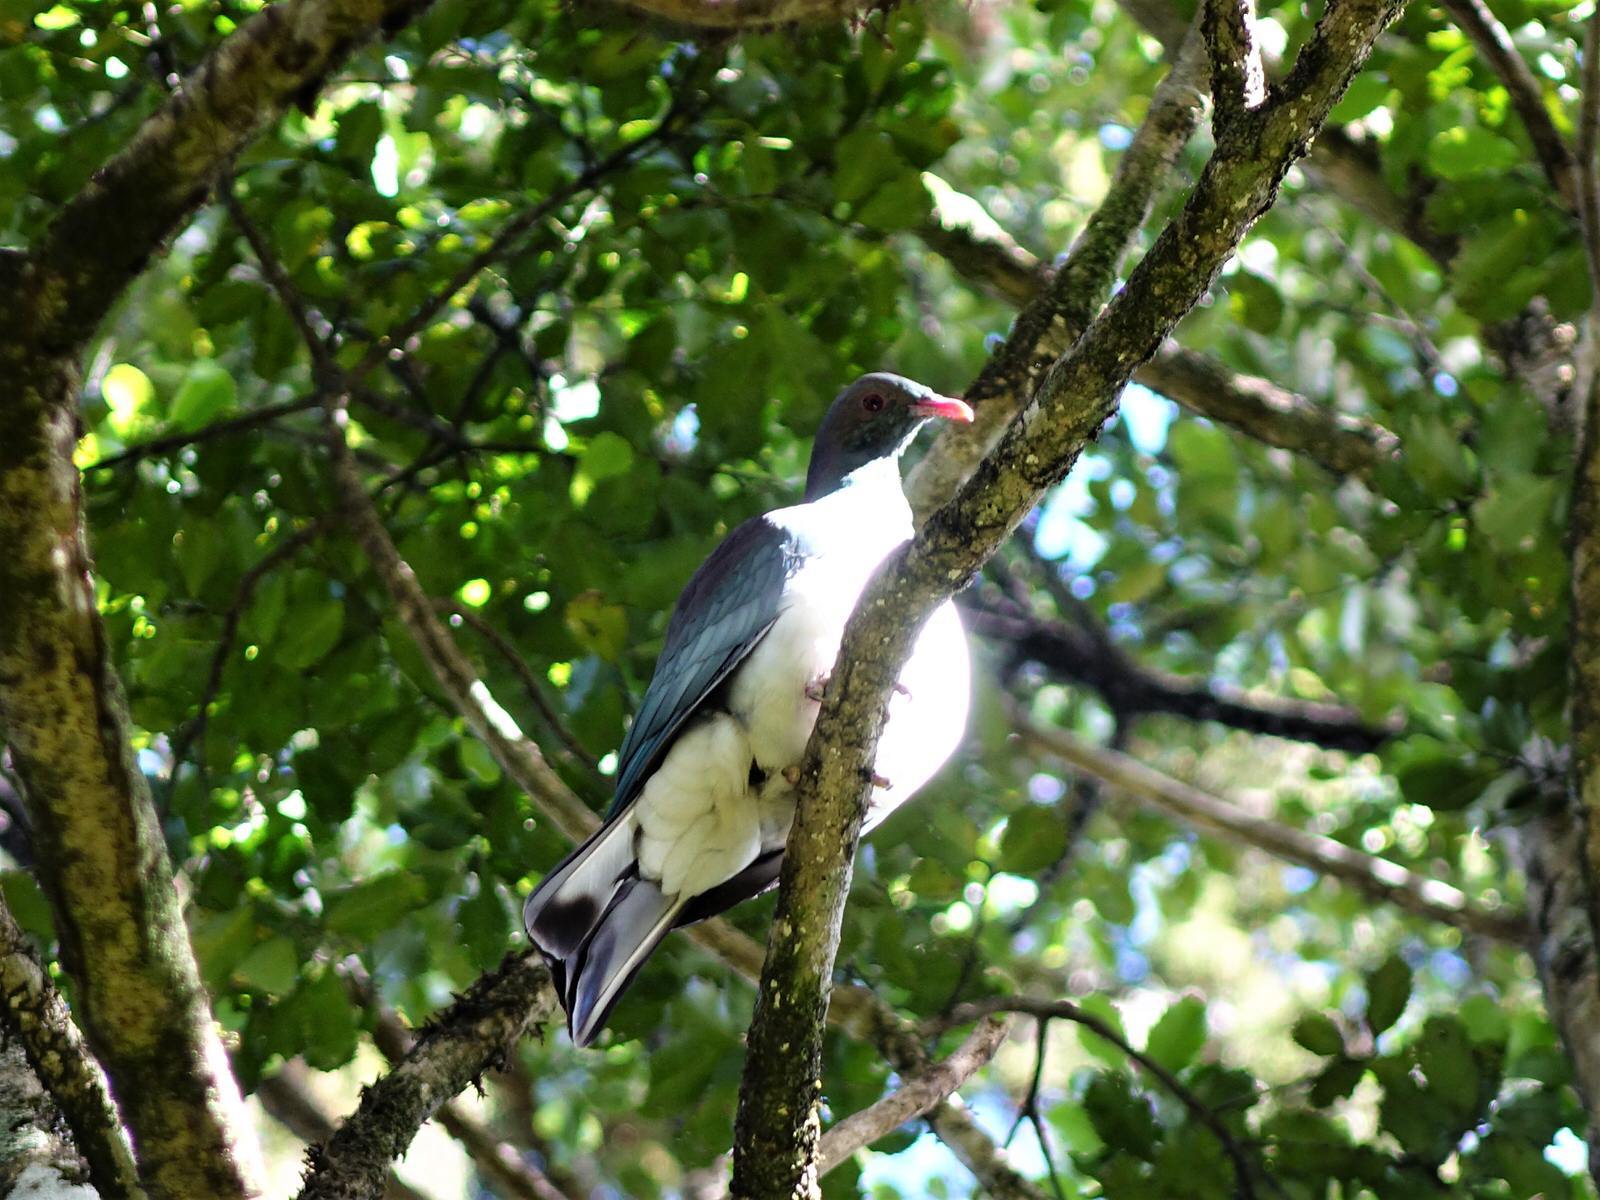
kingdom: Animalia
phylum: Chordata
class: Aves
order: Columbiformes
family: Columbidae
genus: Hemiphaga
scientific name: Hemiphaga novaeseelandiae
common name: New zealand pigeon
